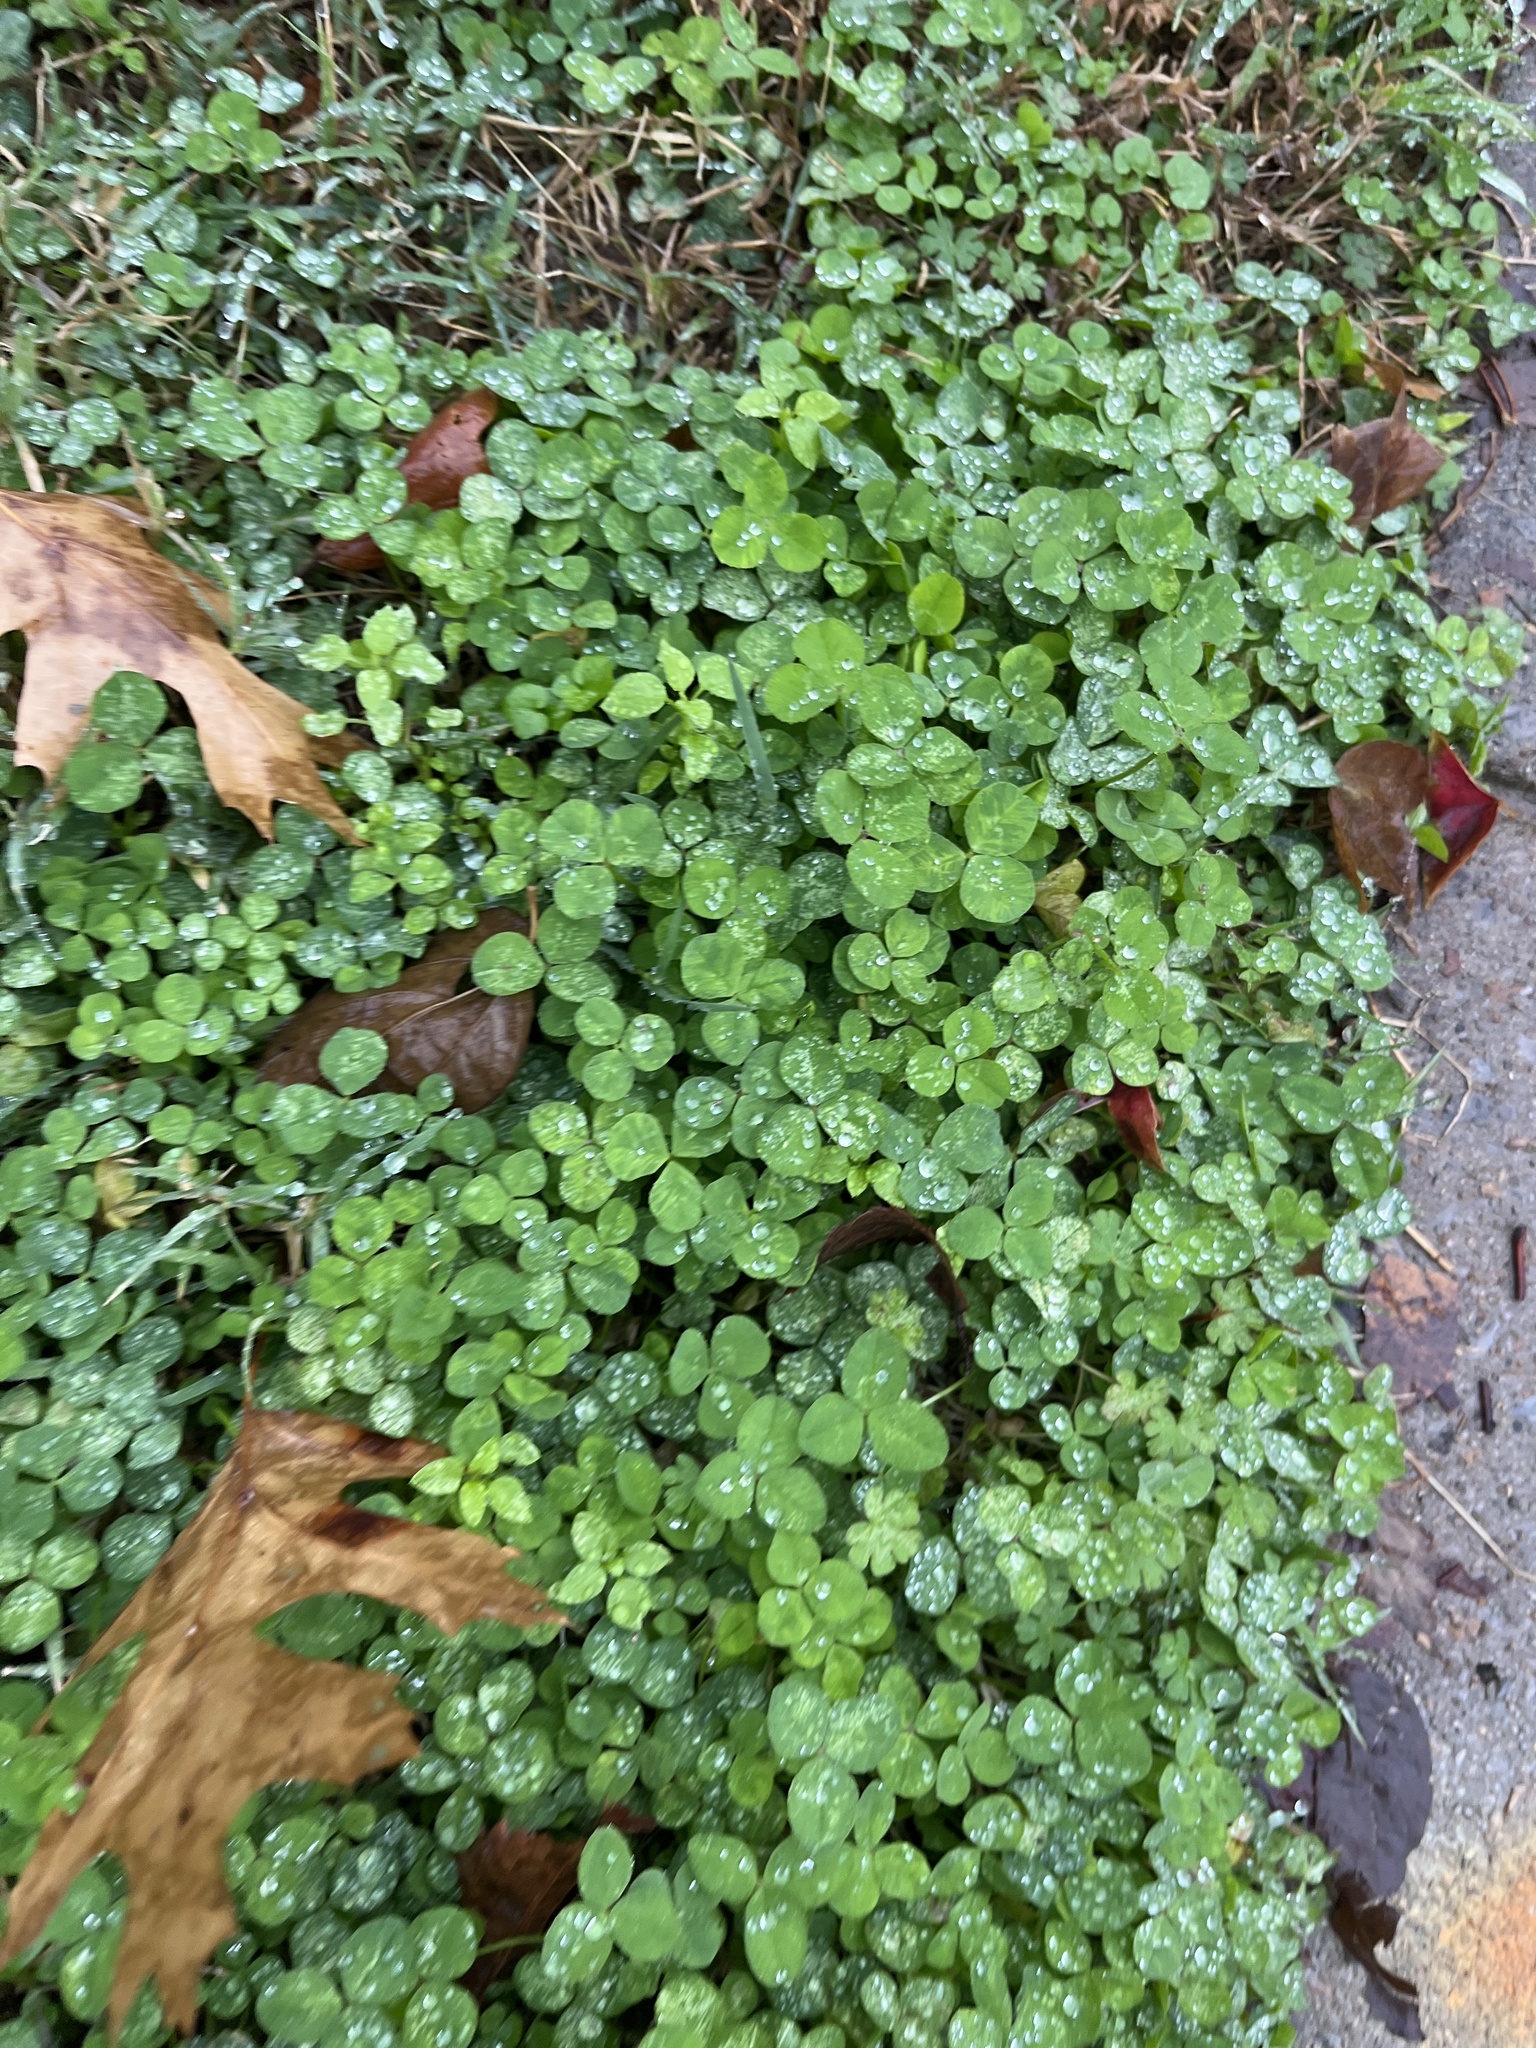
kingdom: Plantae
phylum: Tracheophyta
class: Magnoliopsida
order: Fabales
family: Fabaceae
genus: Trifolium
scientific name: Trifolium repens
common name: White clover
